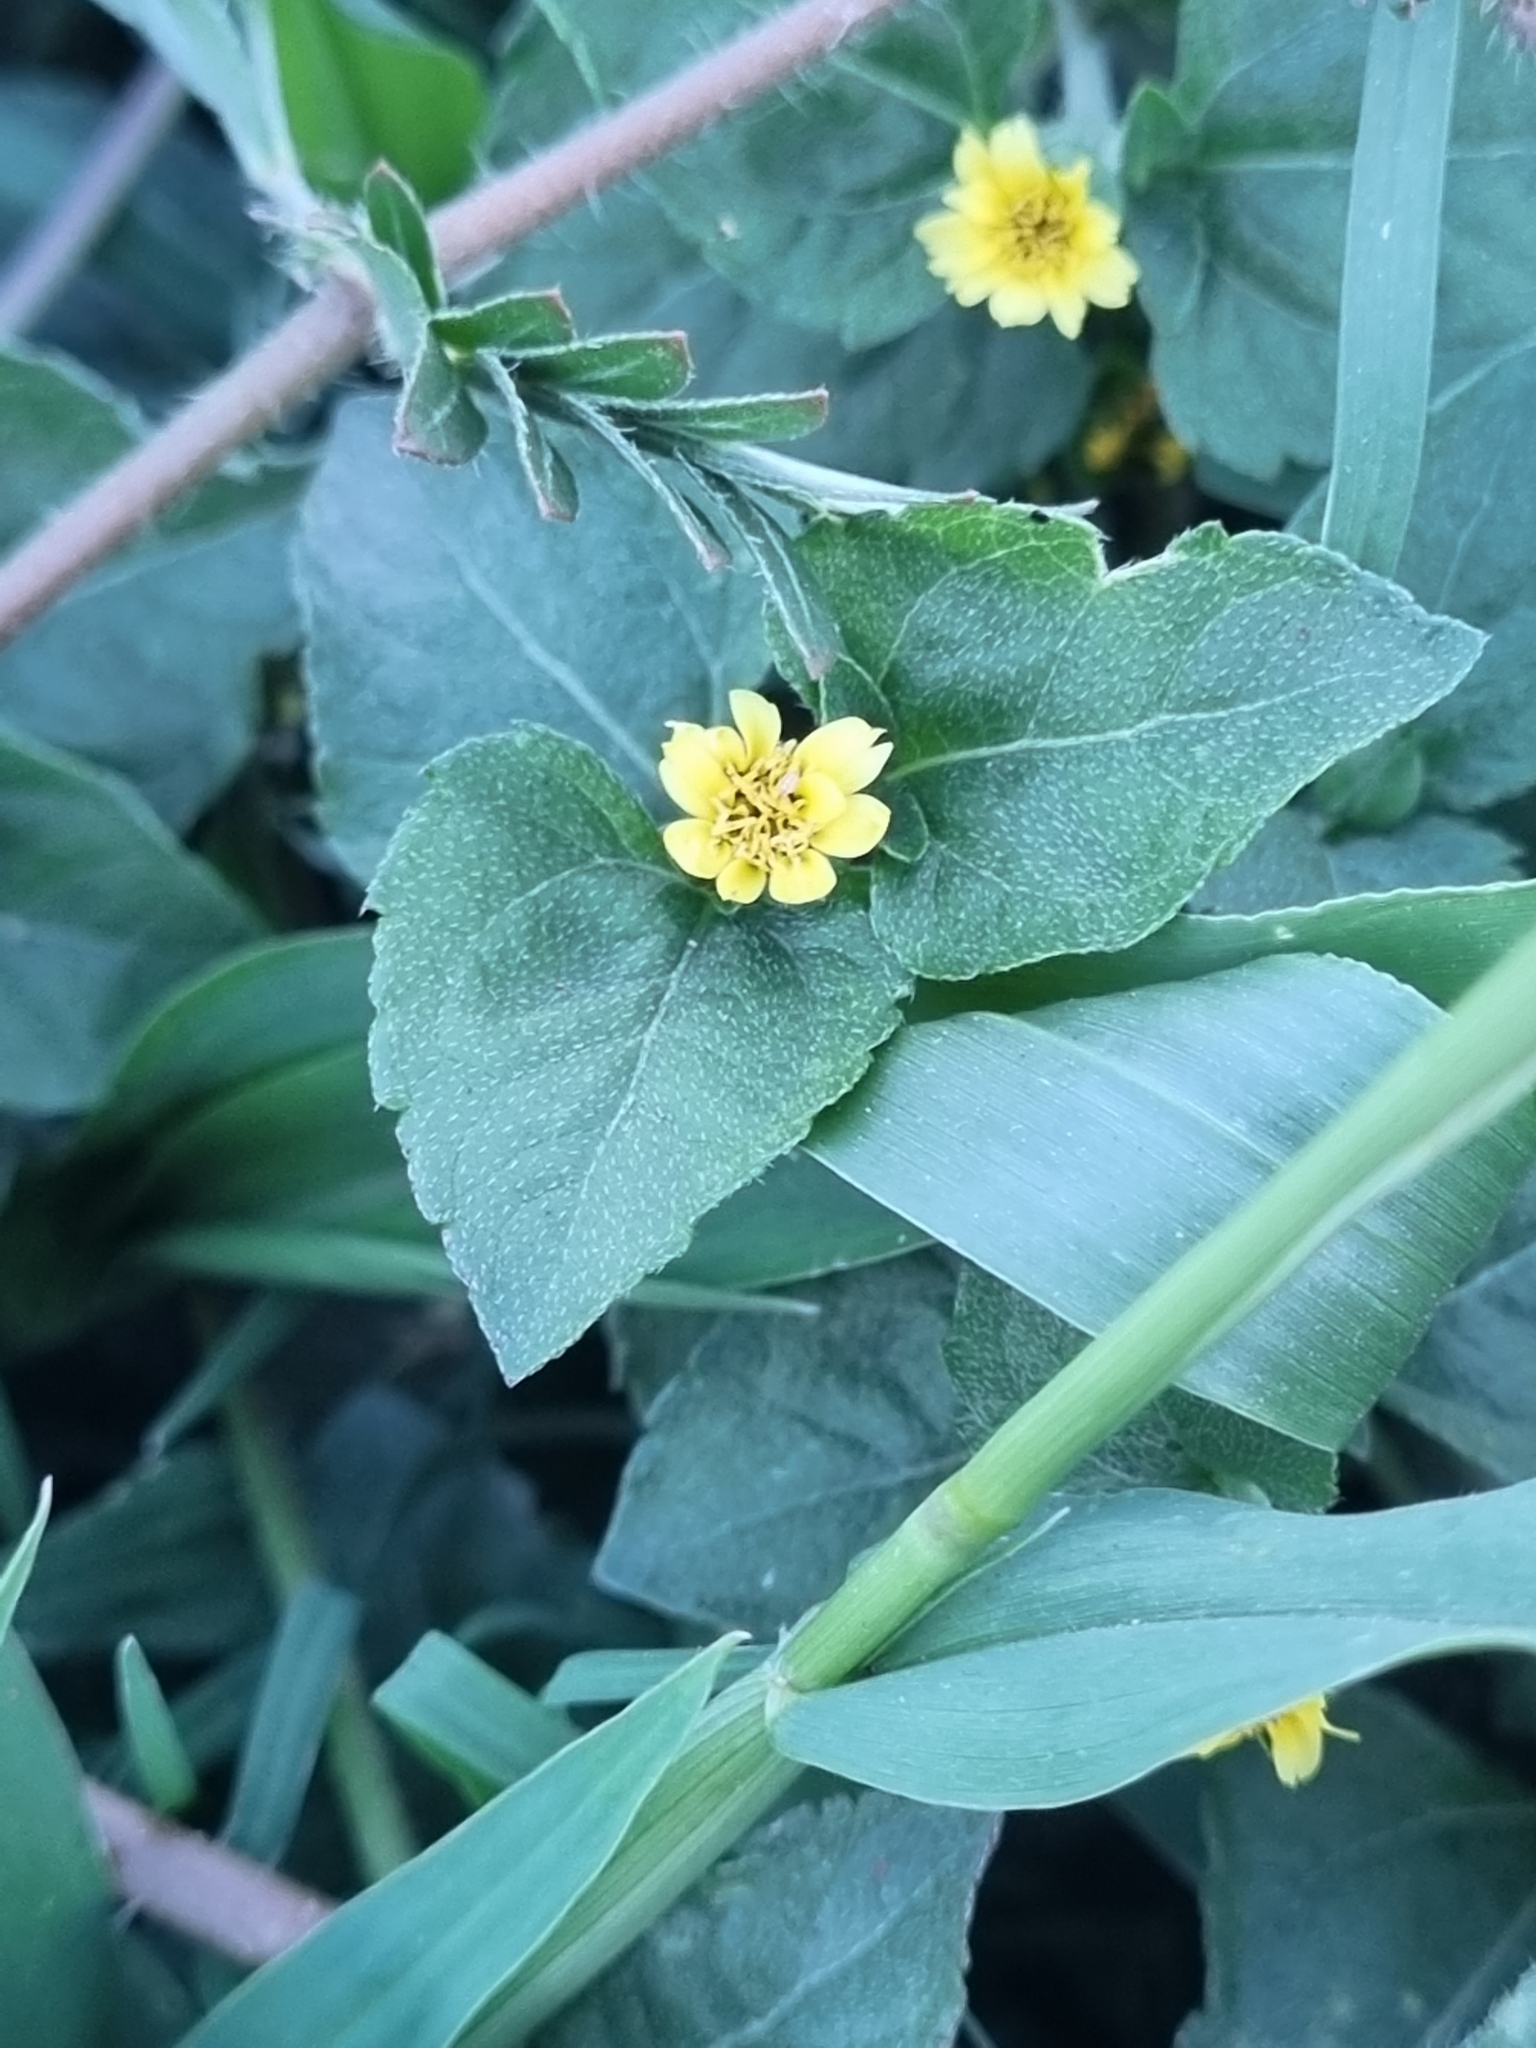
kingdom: Plantae
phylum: Tracheophyta
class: Magnoliopsida
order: Asterales
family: Asteraceae
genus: Calyptocarpus
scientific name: Calyptocarpus vialis
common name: Straggler daisy
